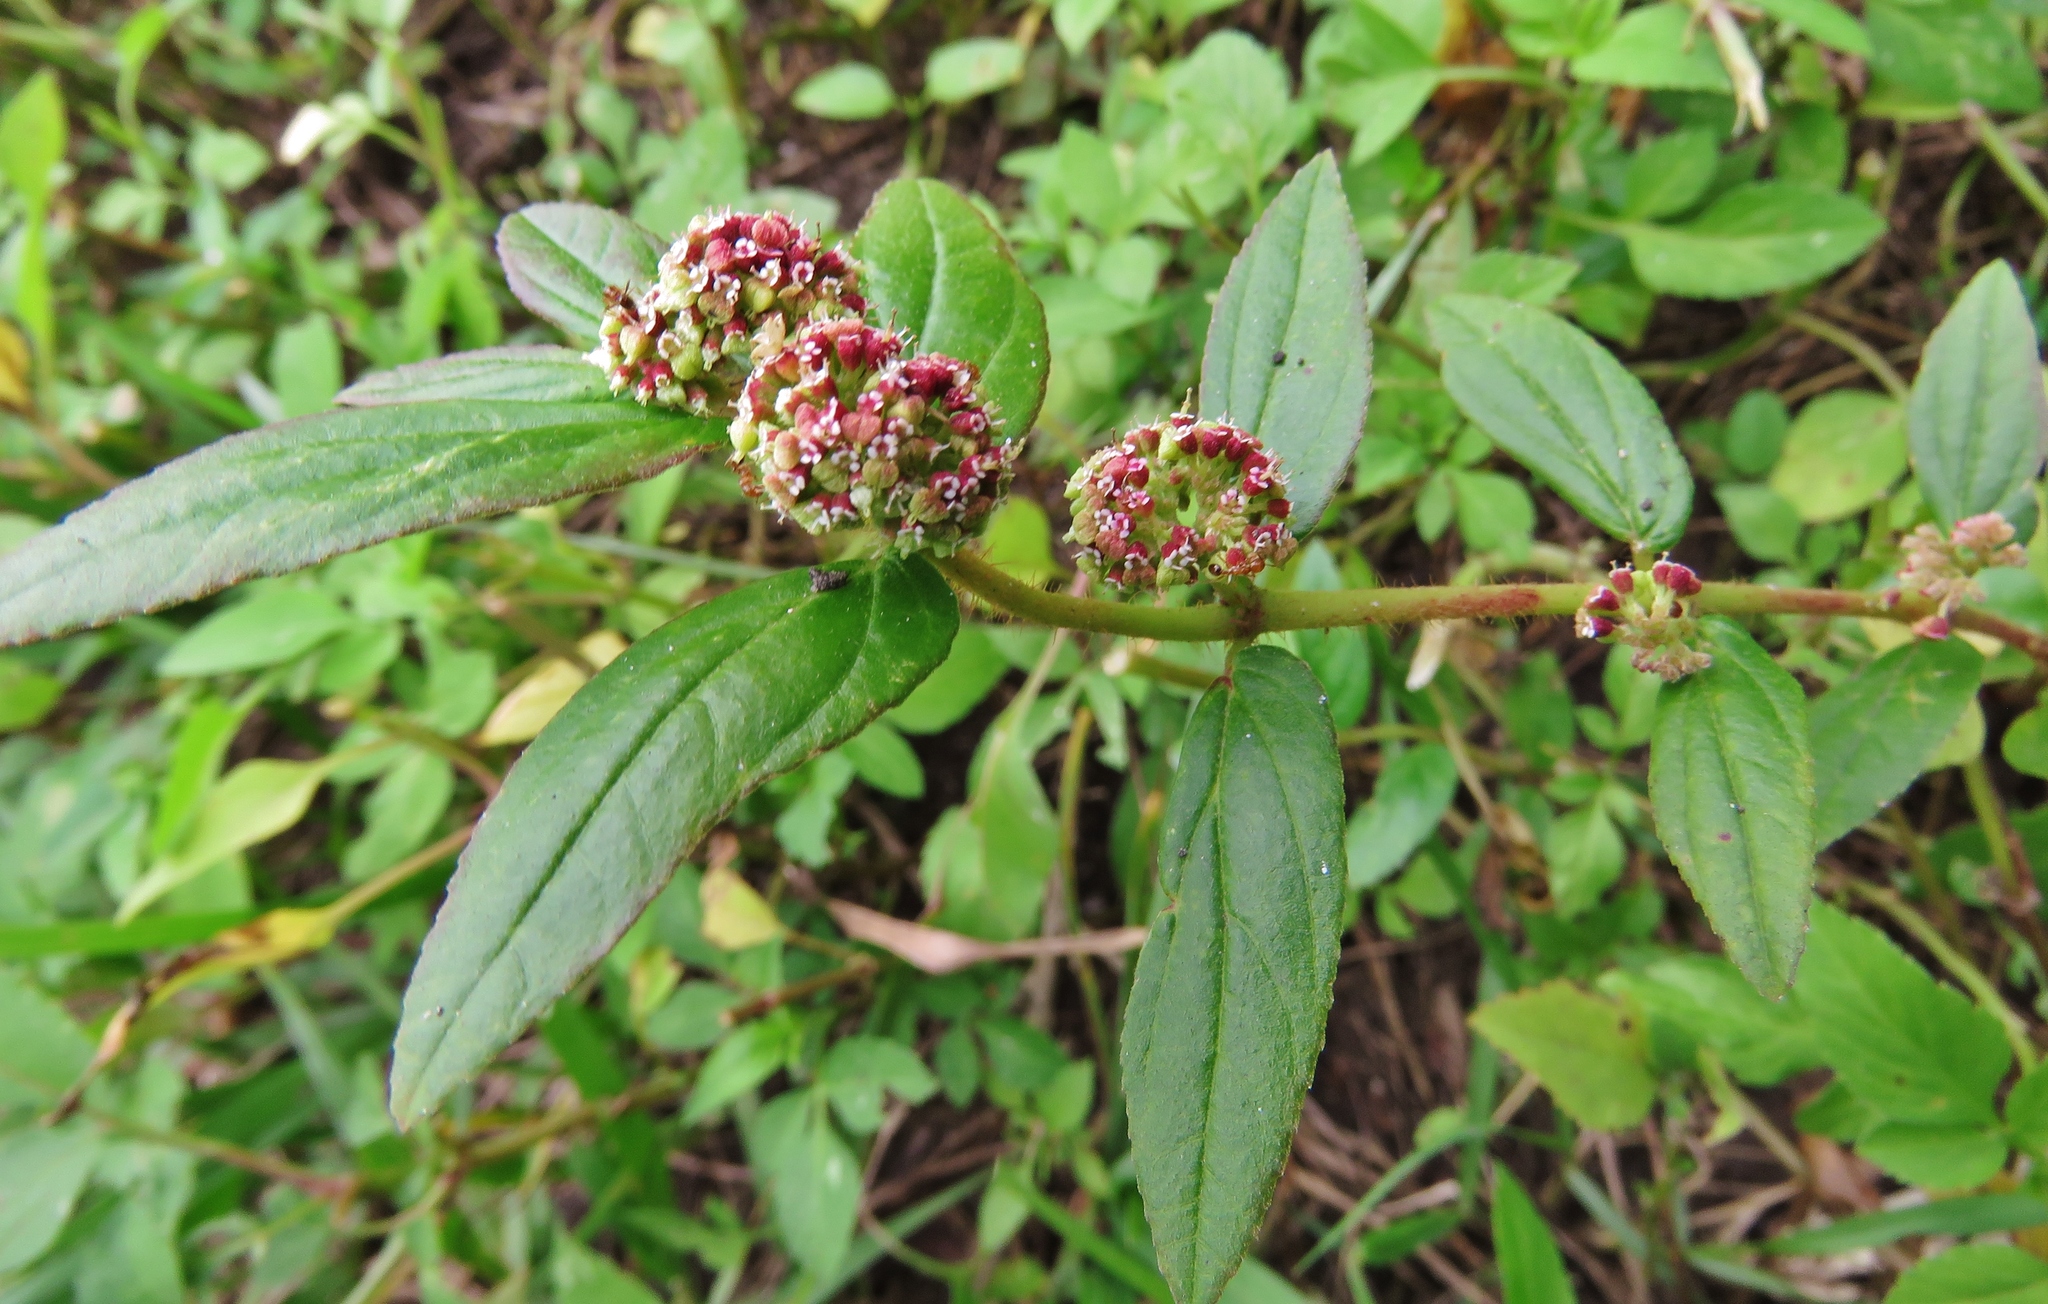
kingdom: Plantae
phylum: Tracheophyta
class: Magnoliopsida
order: Malpighiales
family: Euphorbiaceae
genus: Euphorbia
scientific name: Euphorbia hirta
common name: Pillpod sandmat
